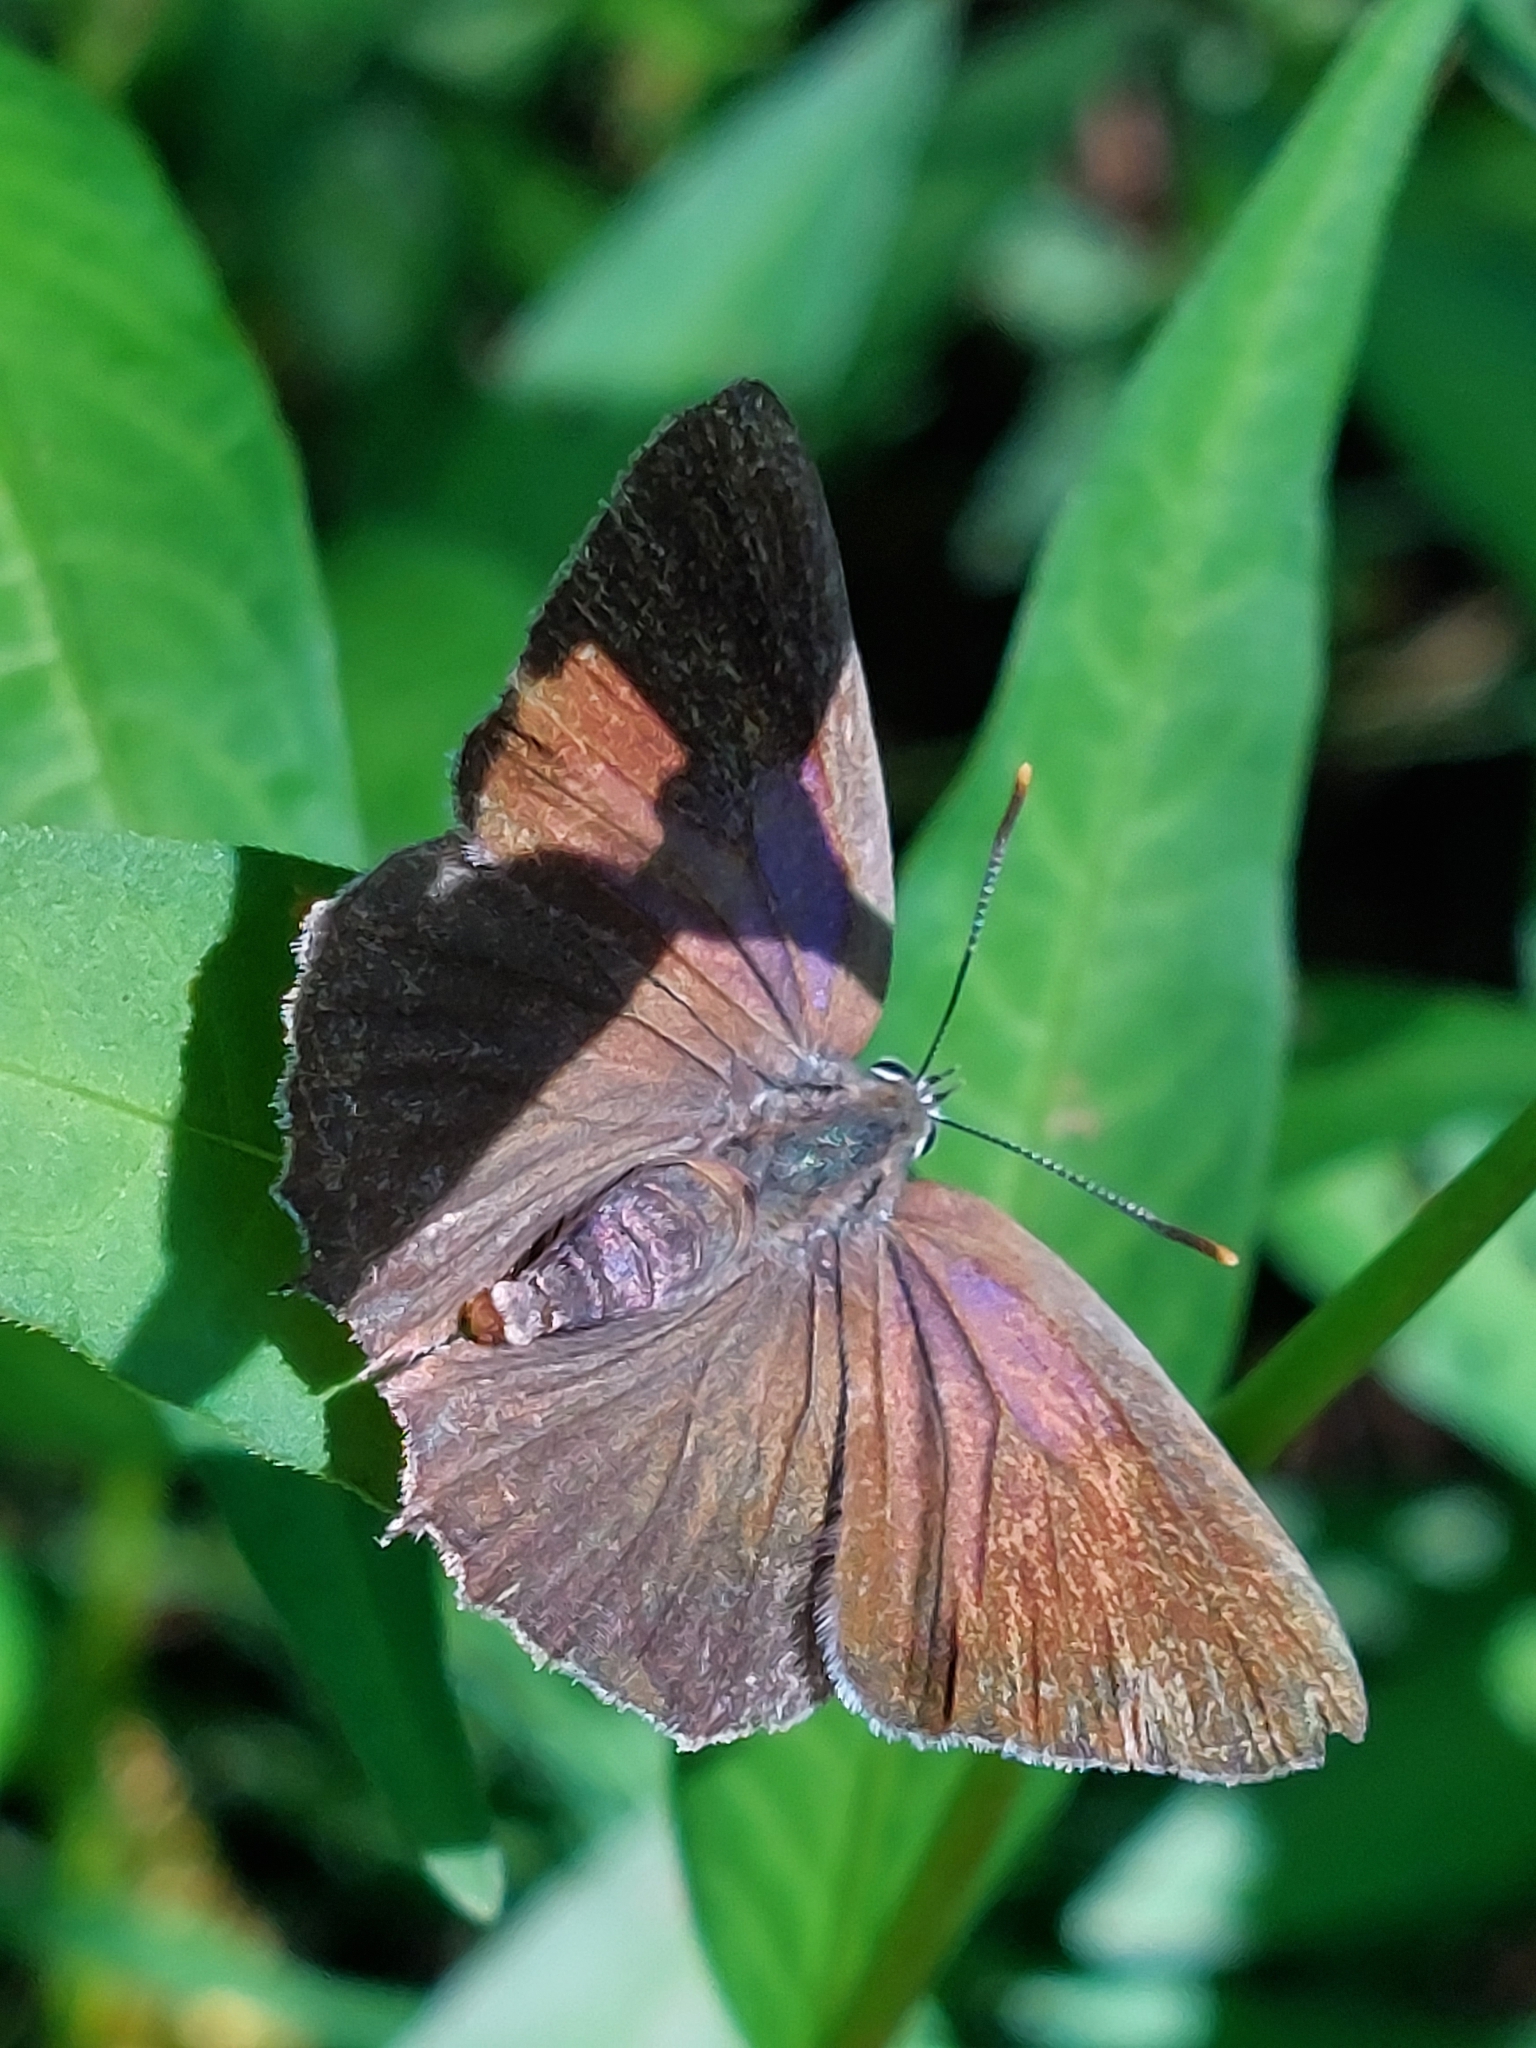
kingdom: Animalia
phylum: Arthropoda
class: Insecta
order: Lepidoptera
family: Lycaenidae
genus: Quercusia
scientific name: Quercusia quercus
